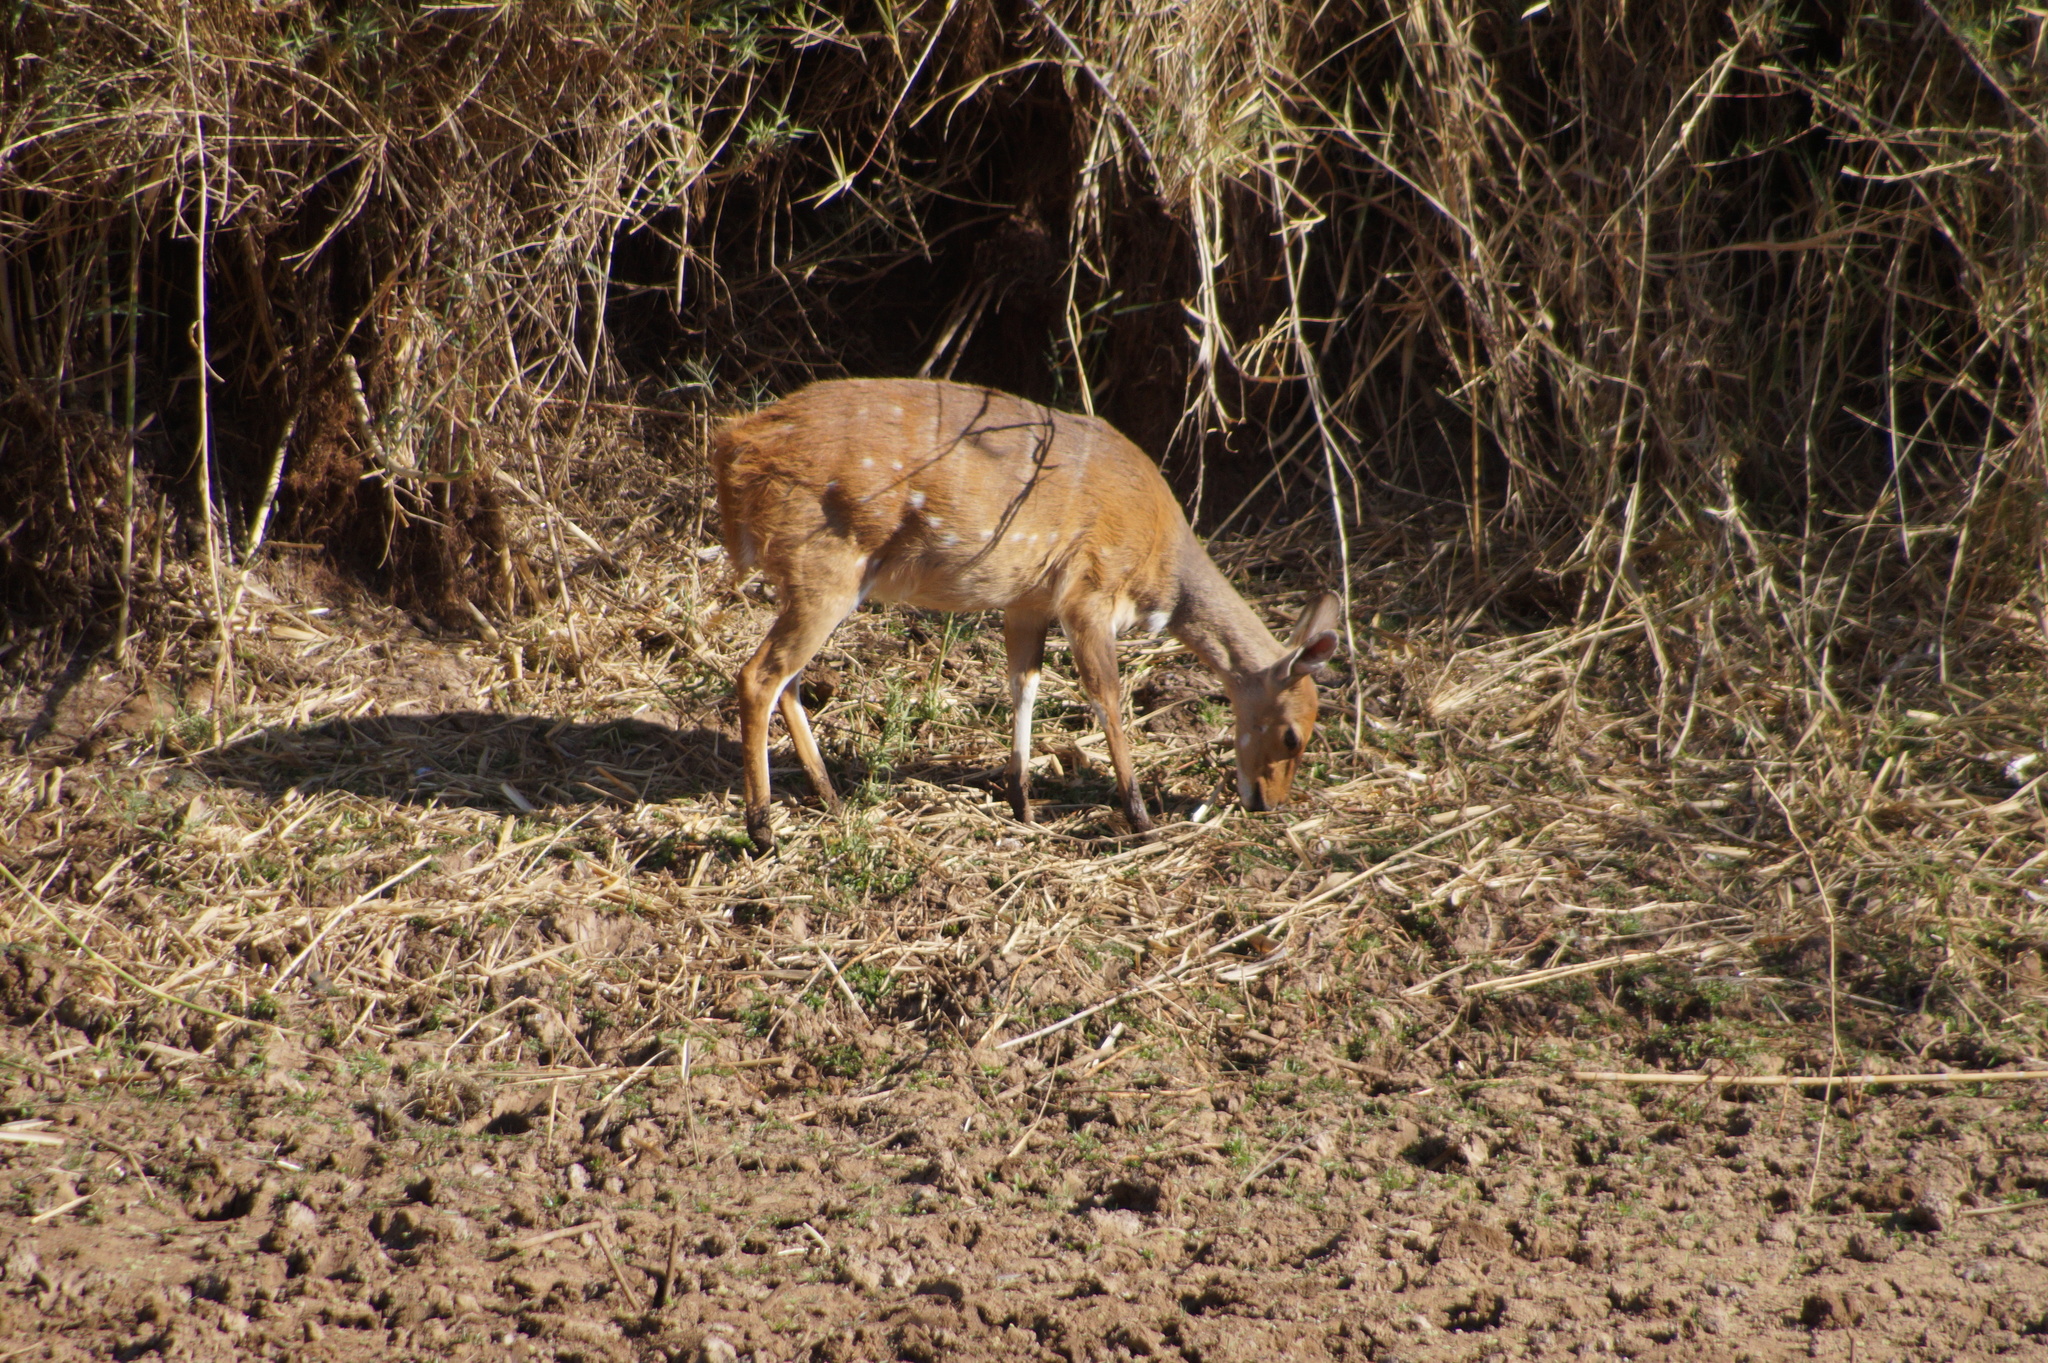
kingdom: Animalia
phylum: Chordata
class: Mammalia
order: Artiodactyla
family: Bovidae
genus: Tragelaphus
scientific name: Tragelaphus scriptus
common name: Bushbuck
